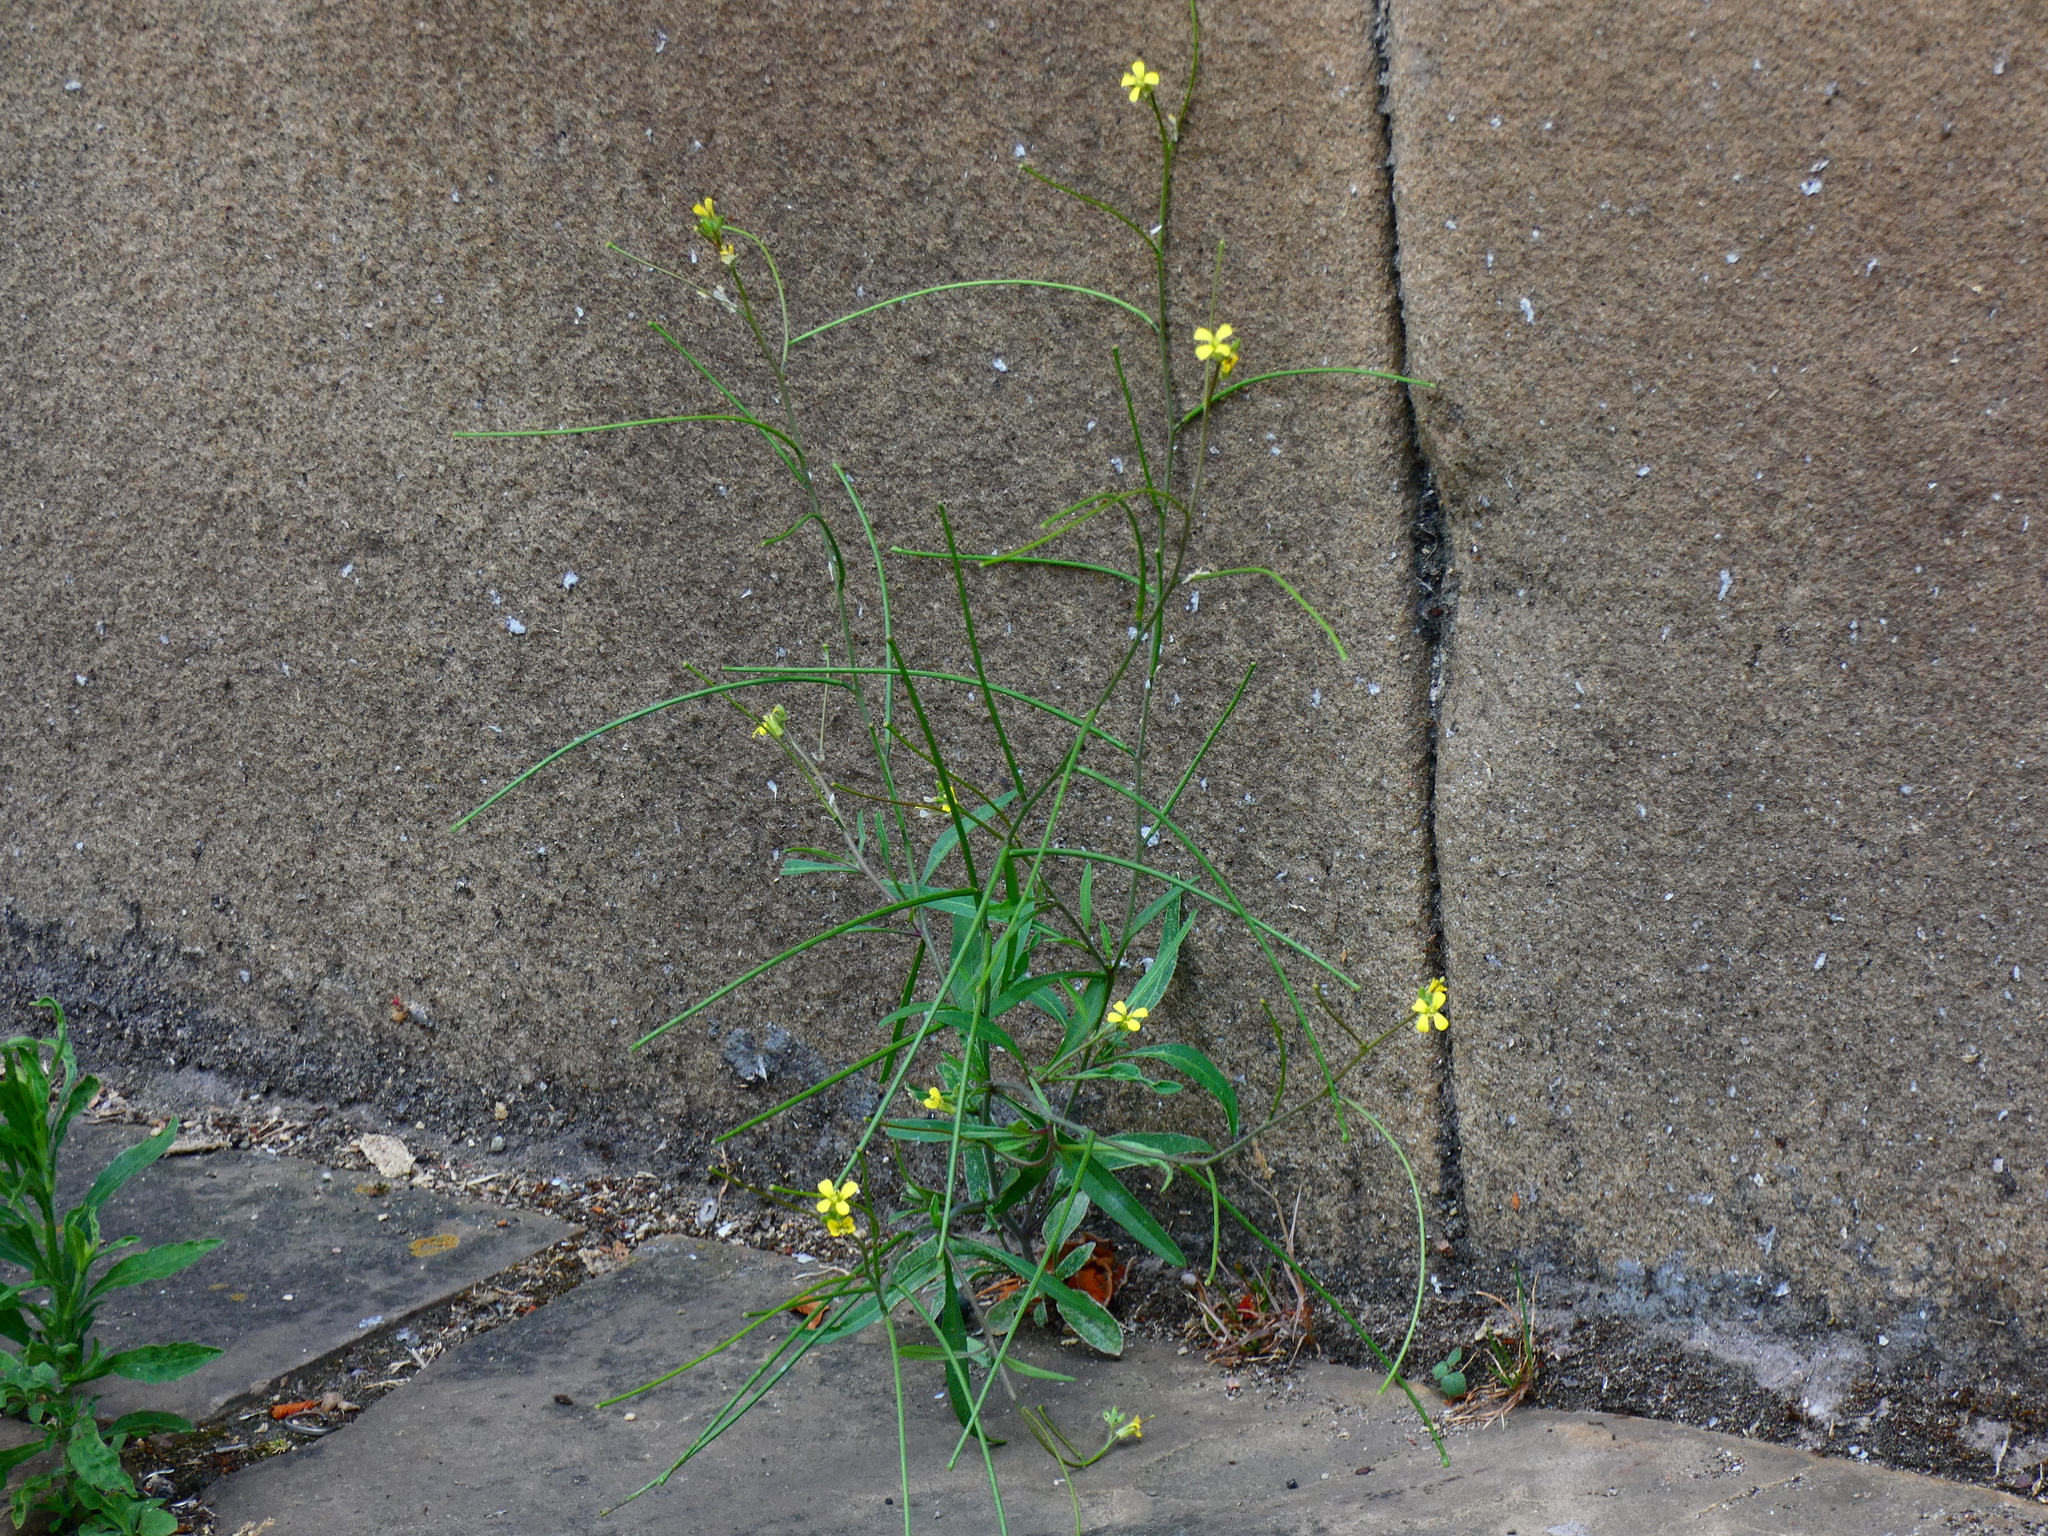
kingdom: Plantae
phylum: Tracheophyta
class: Magnoliopsida
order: Brassicales
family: Brassicaceae
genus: Sisymbrium
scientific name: Sisymbrium orientale
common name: Eastern rocket
